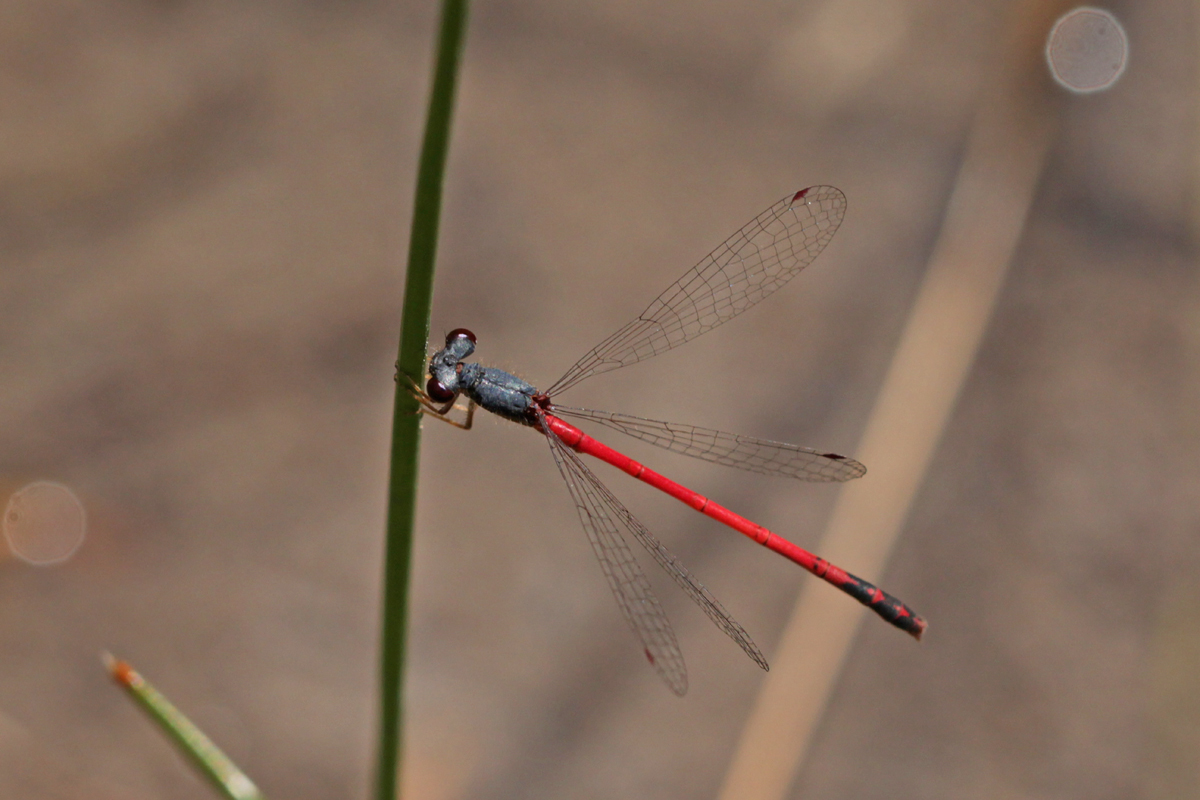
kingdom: Animalia
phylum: Arthropoda
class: Insecta
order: Odonata
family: Coenagrionidae
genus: Amphiagrion
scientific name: Amphiagrion saucium
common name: Eastern red damsel
